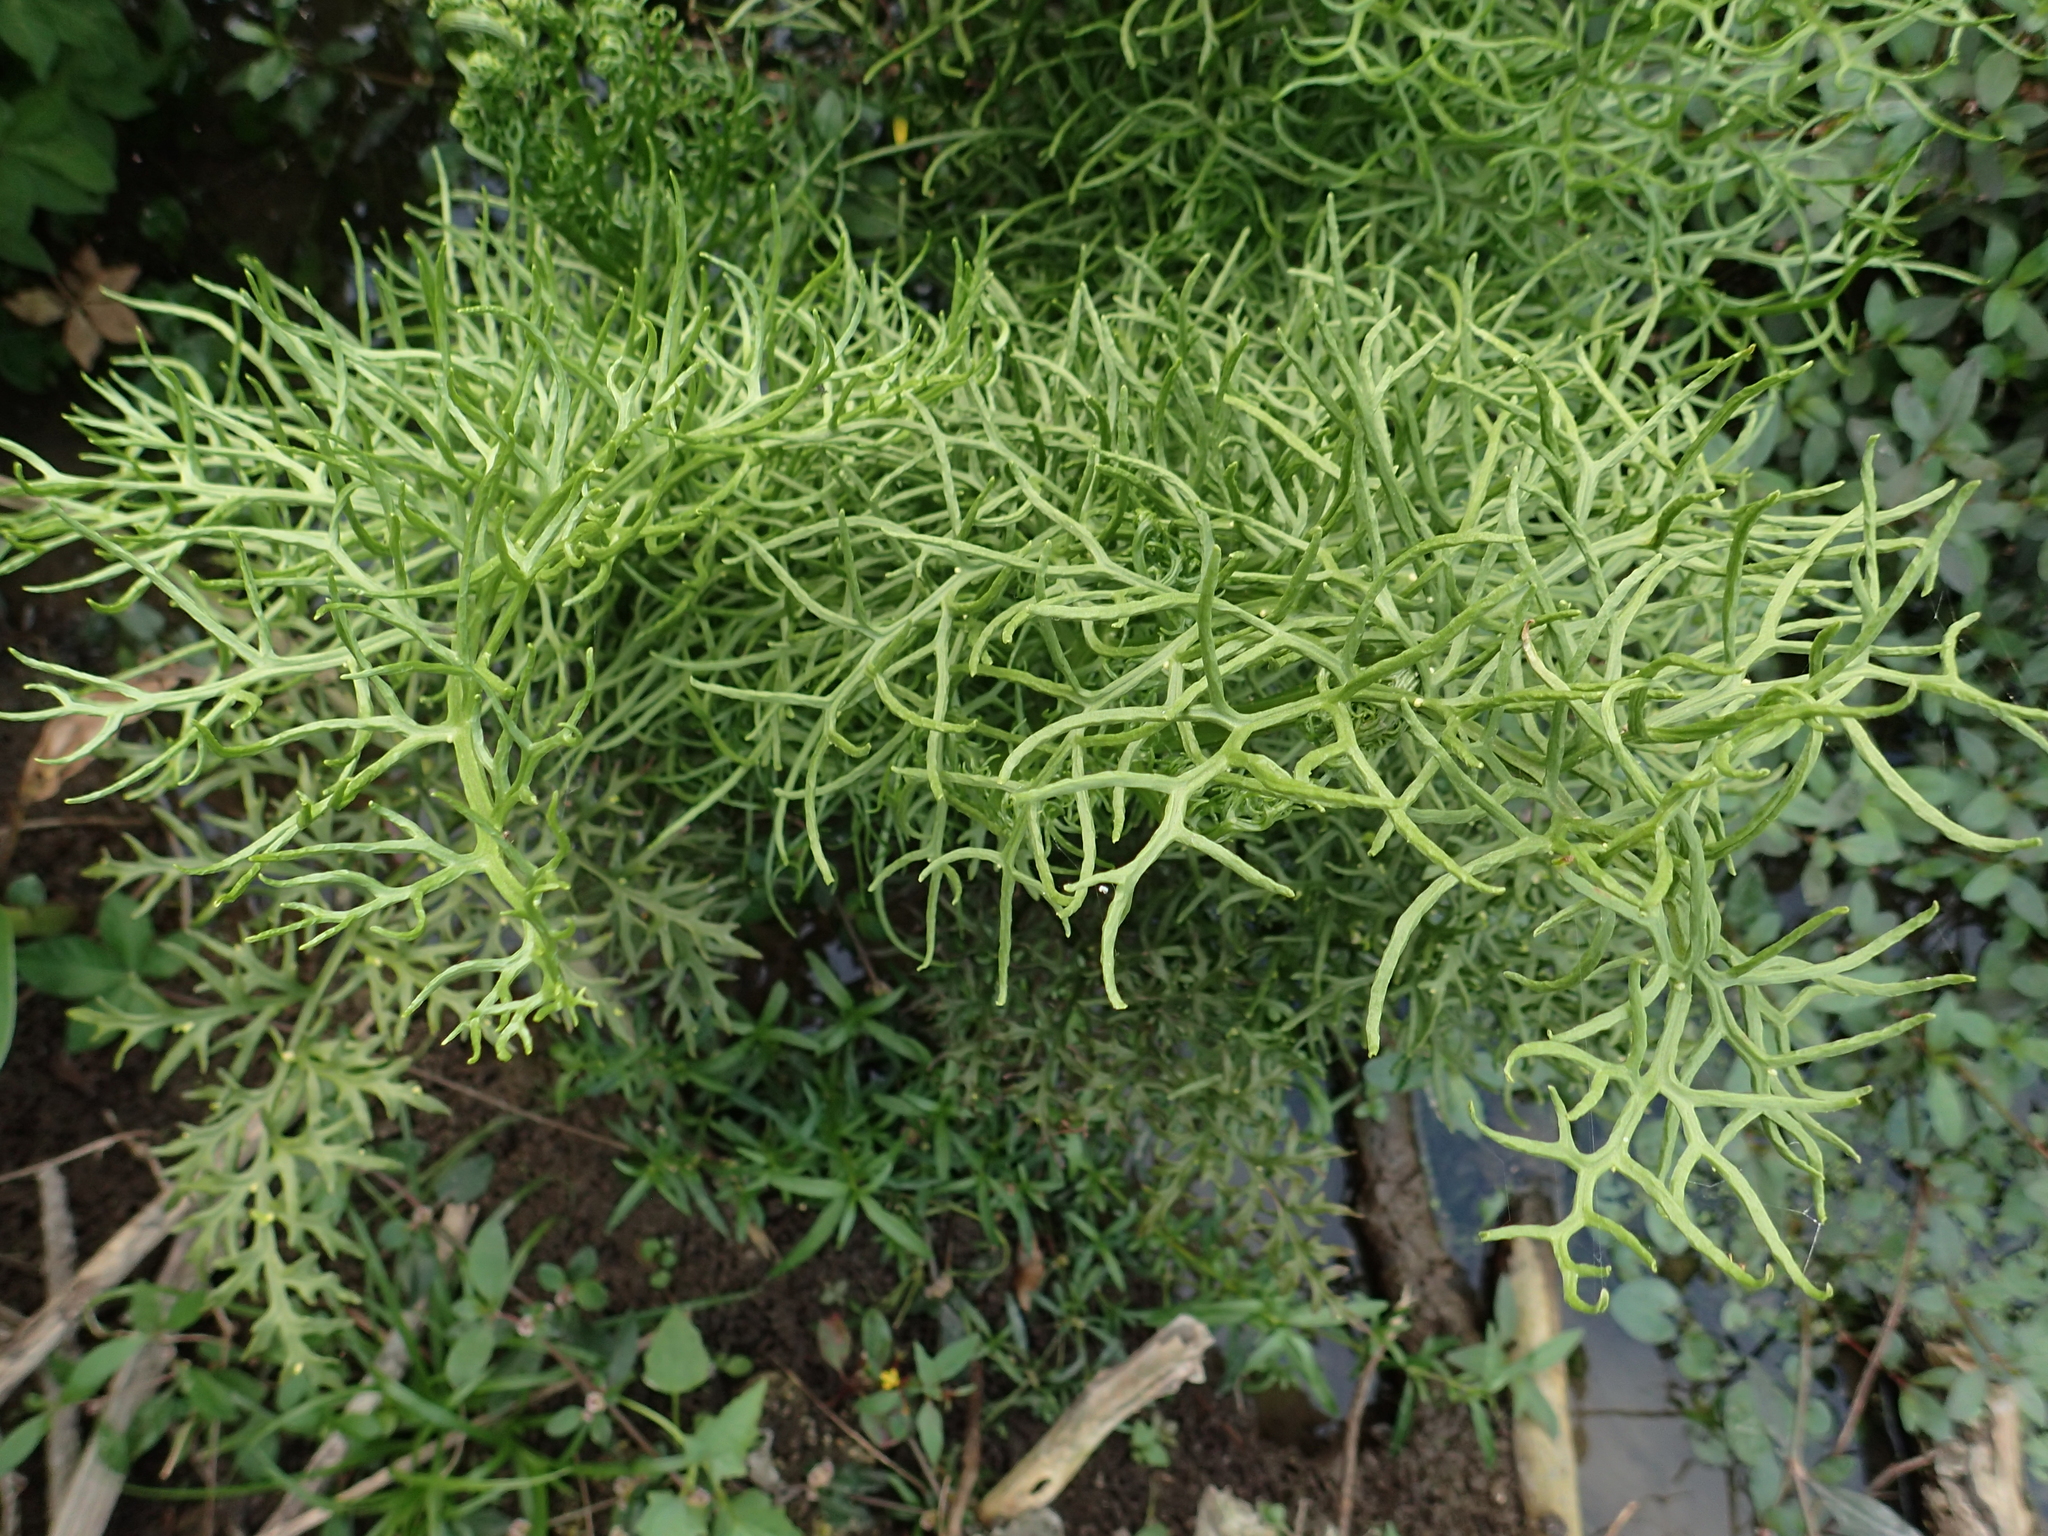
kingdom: Plantae
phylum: Tracheophyta
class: Polypodiopsida
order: Polypodiales
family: Pteridaceae
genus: Ceratopteris
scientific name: Ceratopteris thalictroides
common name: Water fern
